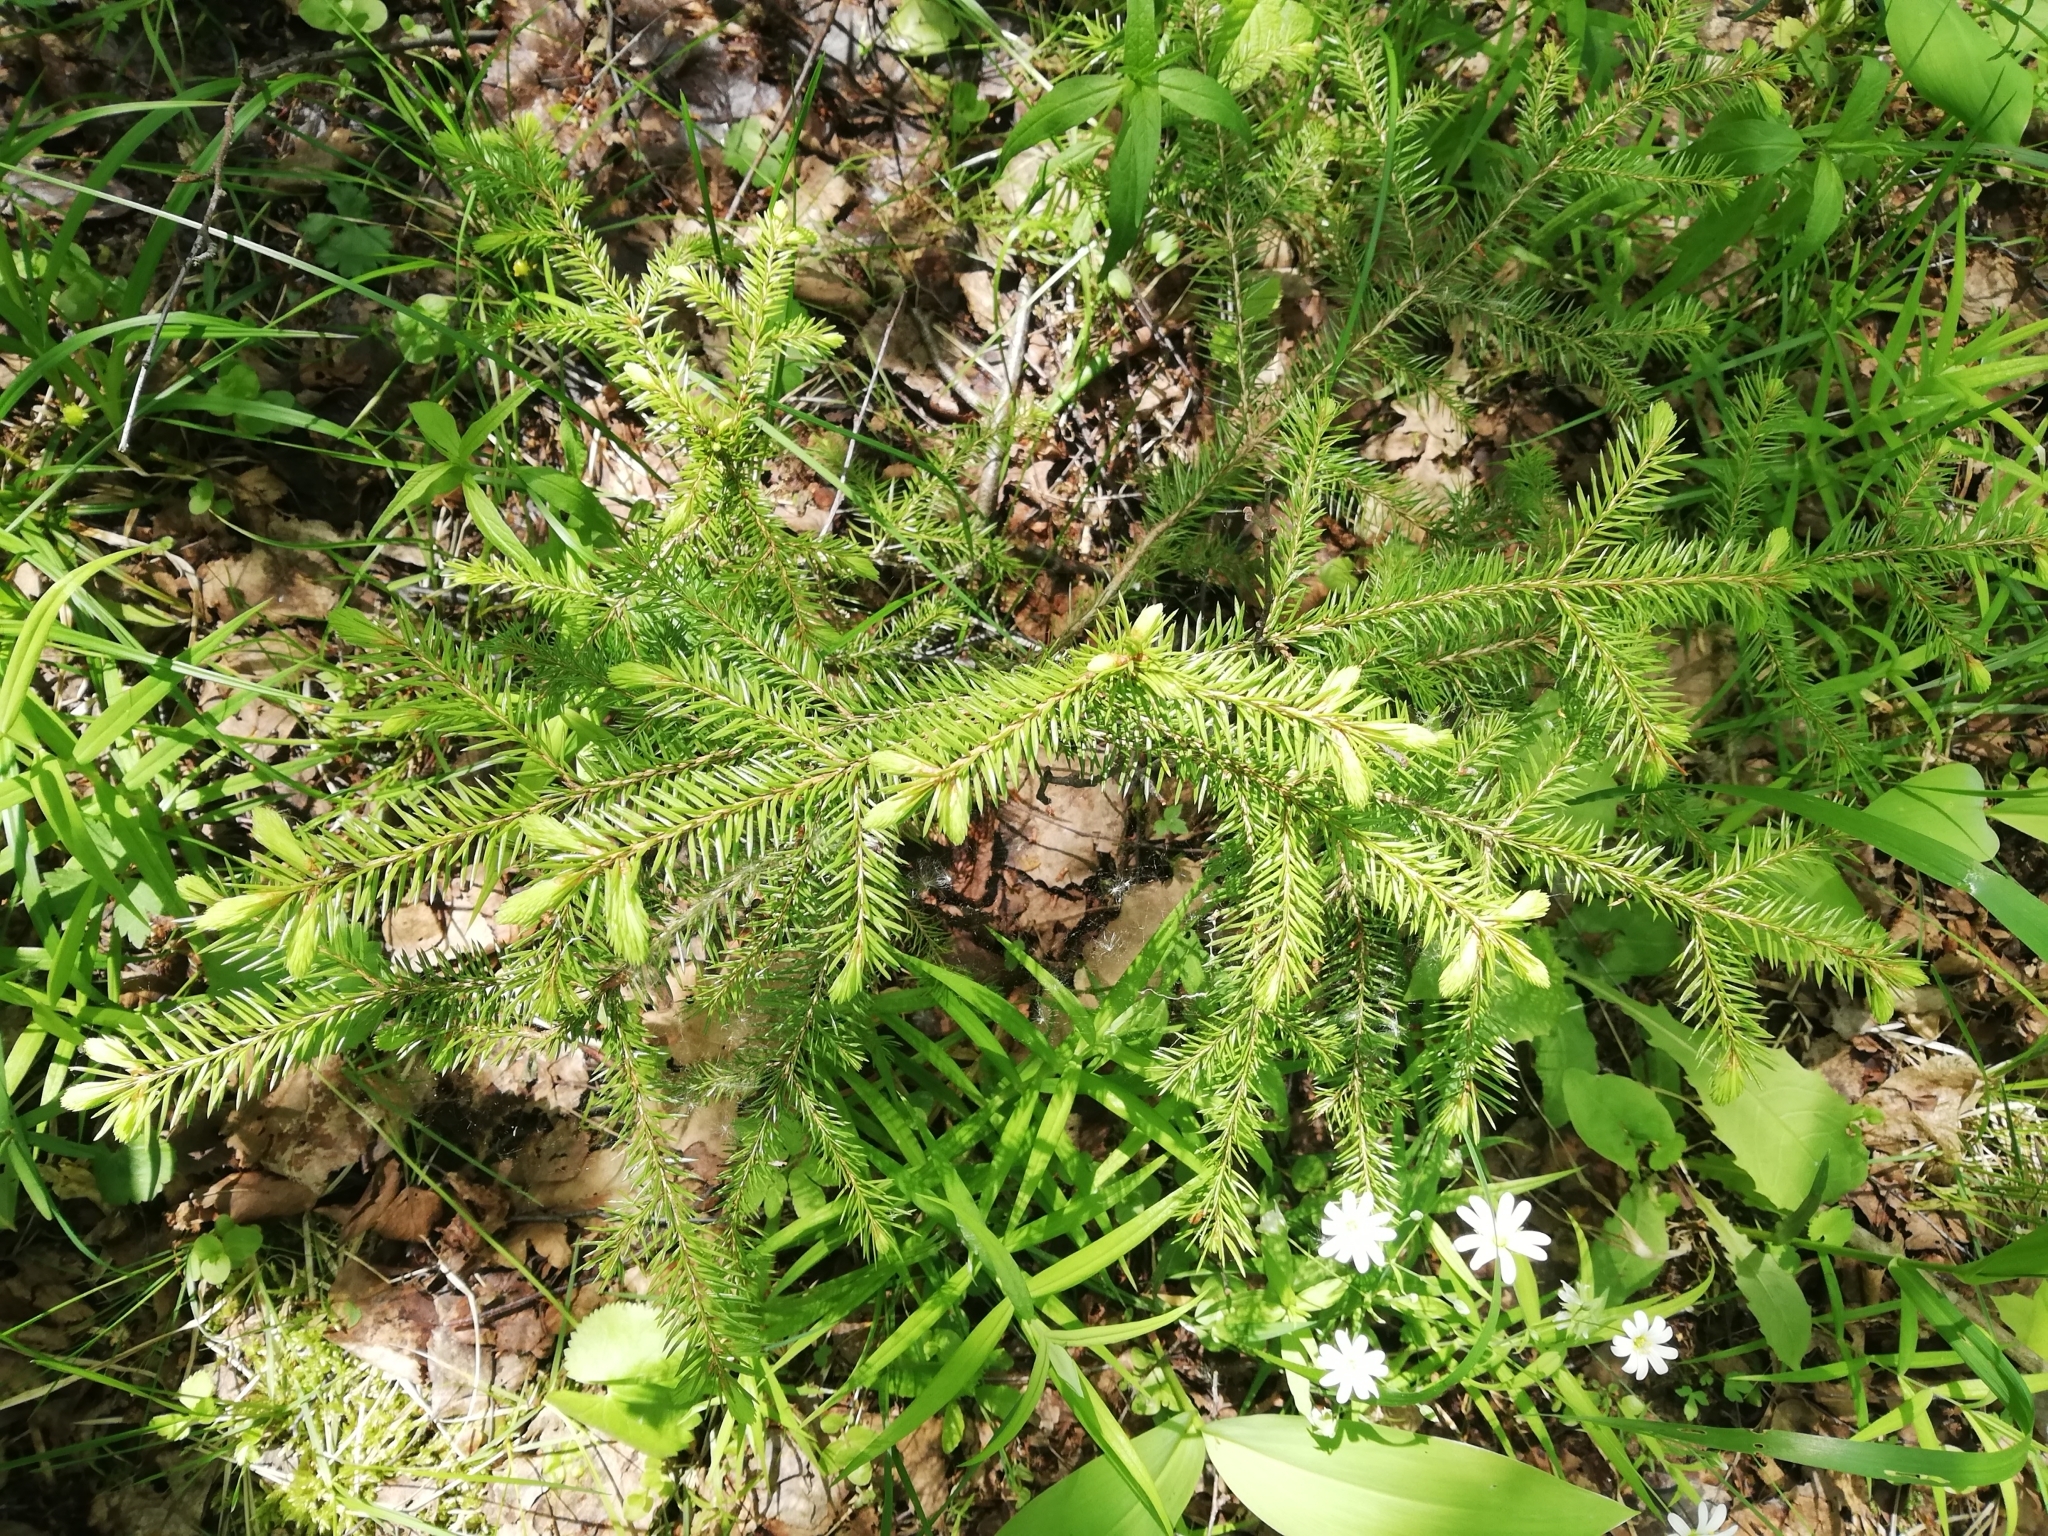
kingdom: Plantae
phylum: Tracheophyta
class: Pinopsida
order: Pinales
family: Pinaceae
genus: Picea
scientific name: Picea abies
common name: Norway spruce
